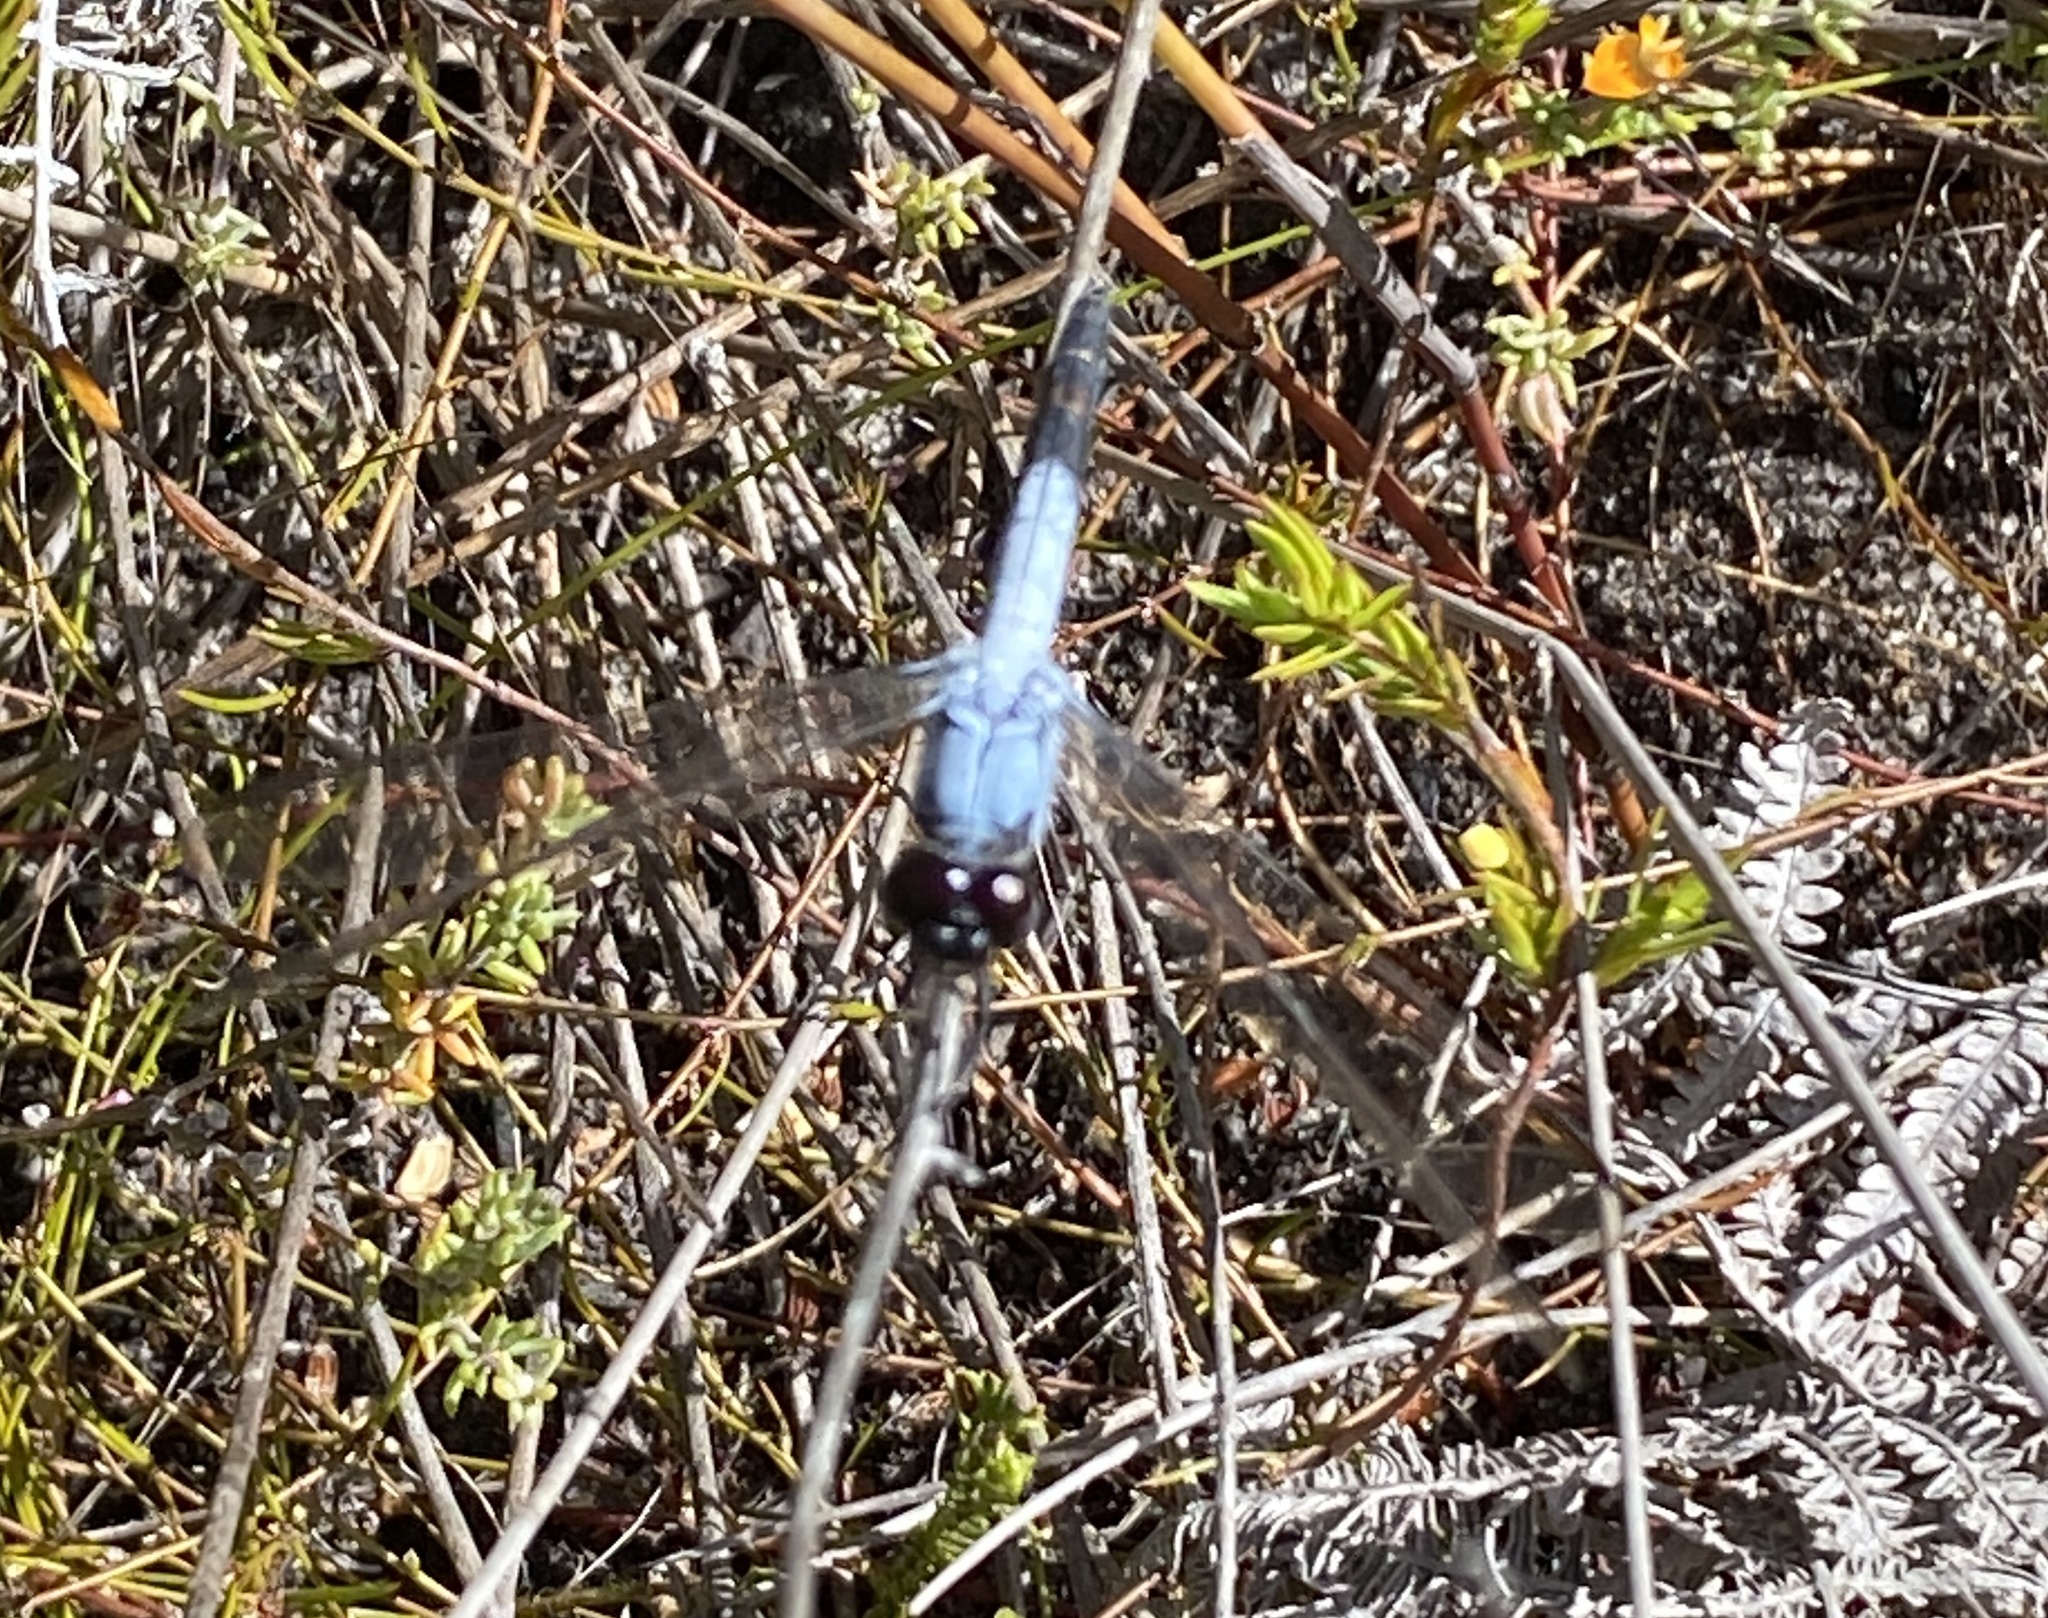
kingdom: Animalia
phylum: Arthropoda
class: Insecta
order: Odonata
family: Libellulidae
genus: Nesciothemis
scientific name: Nesciothemis farinosa
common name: Eastern blacktail
